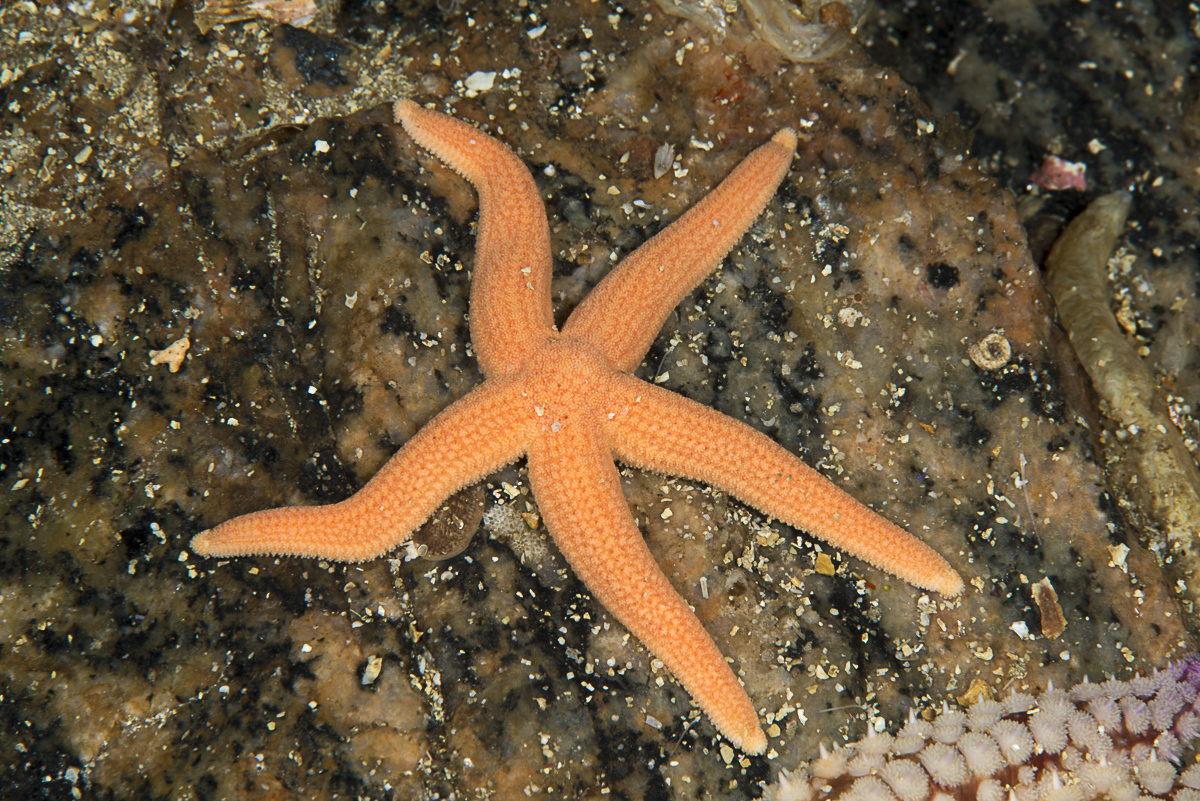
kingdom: Animalia
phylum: Echinodermata
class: Asteroidea
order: Forcipulatida
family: Stichasteridae
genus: Stichastrella
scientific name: Stichastrella rosea
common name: Rosy starfish
